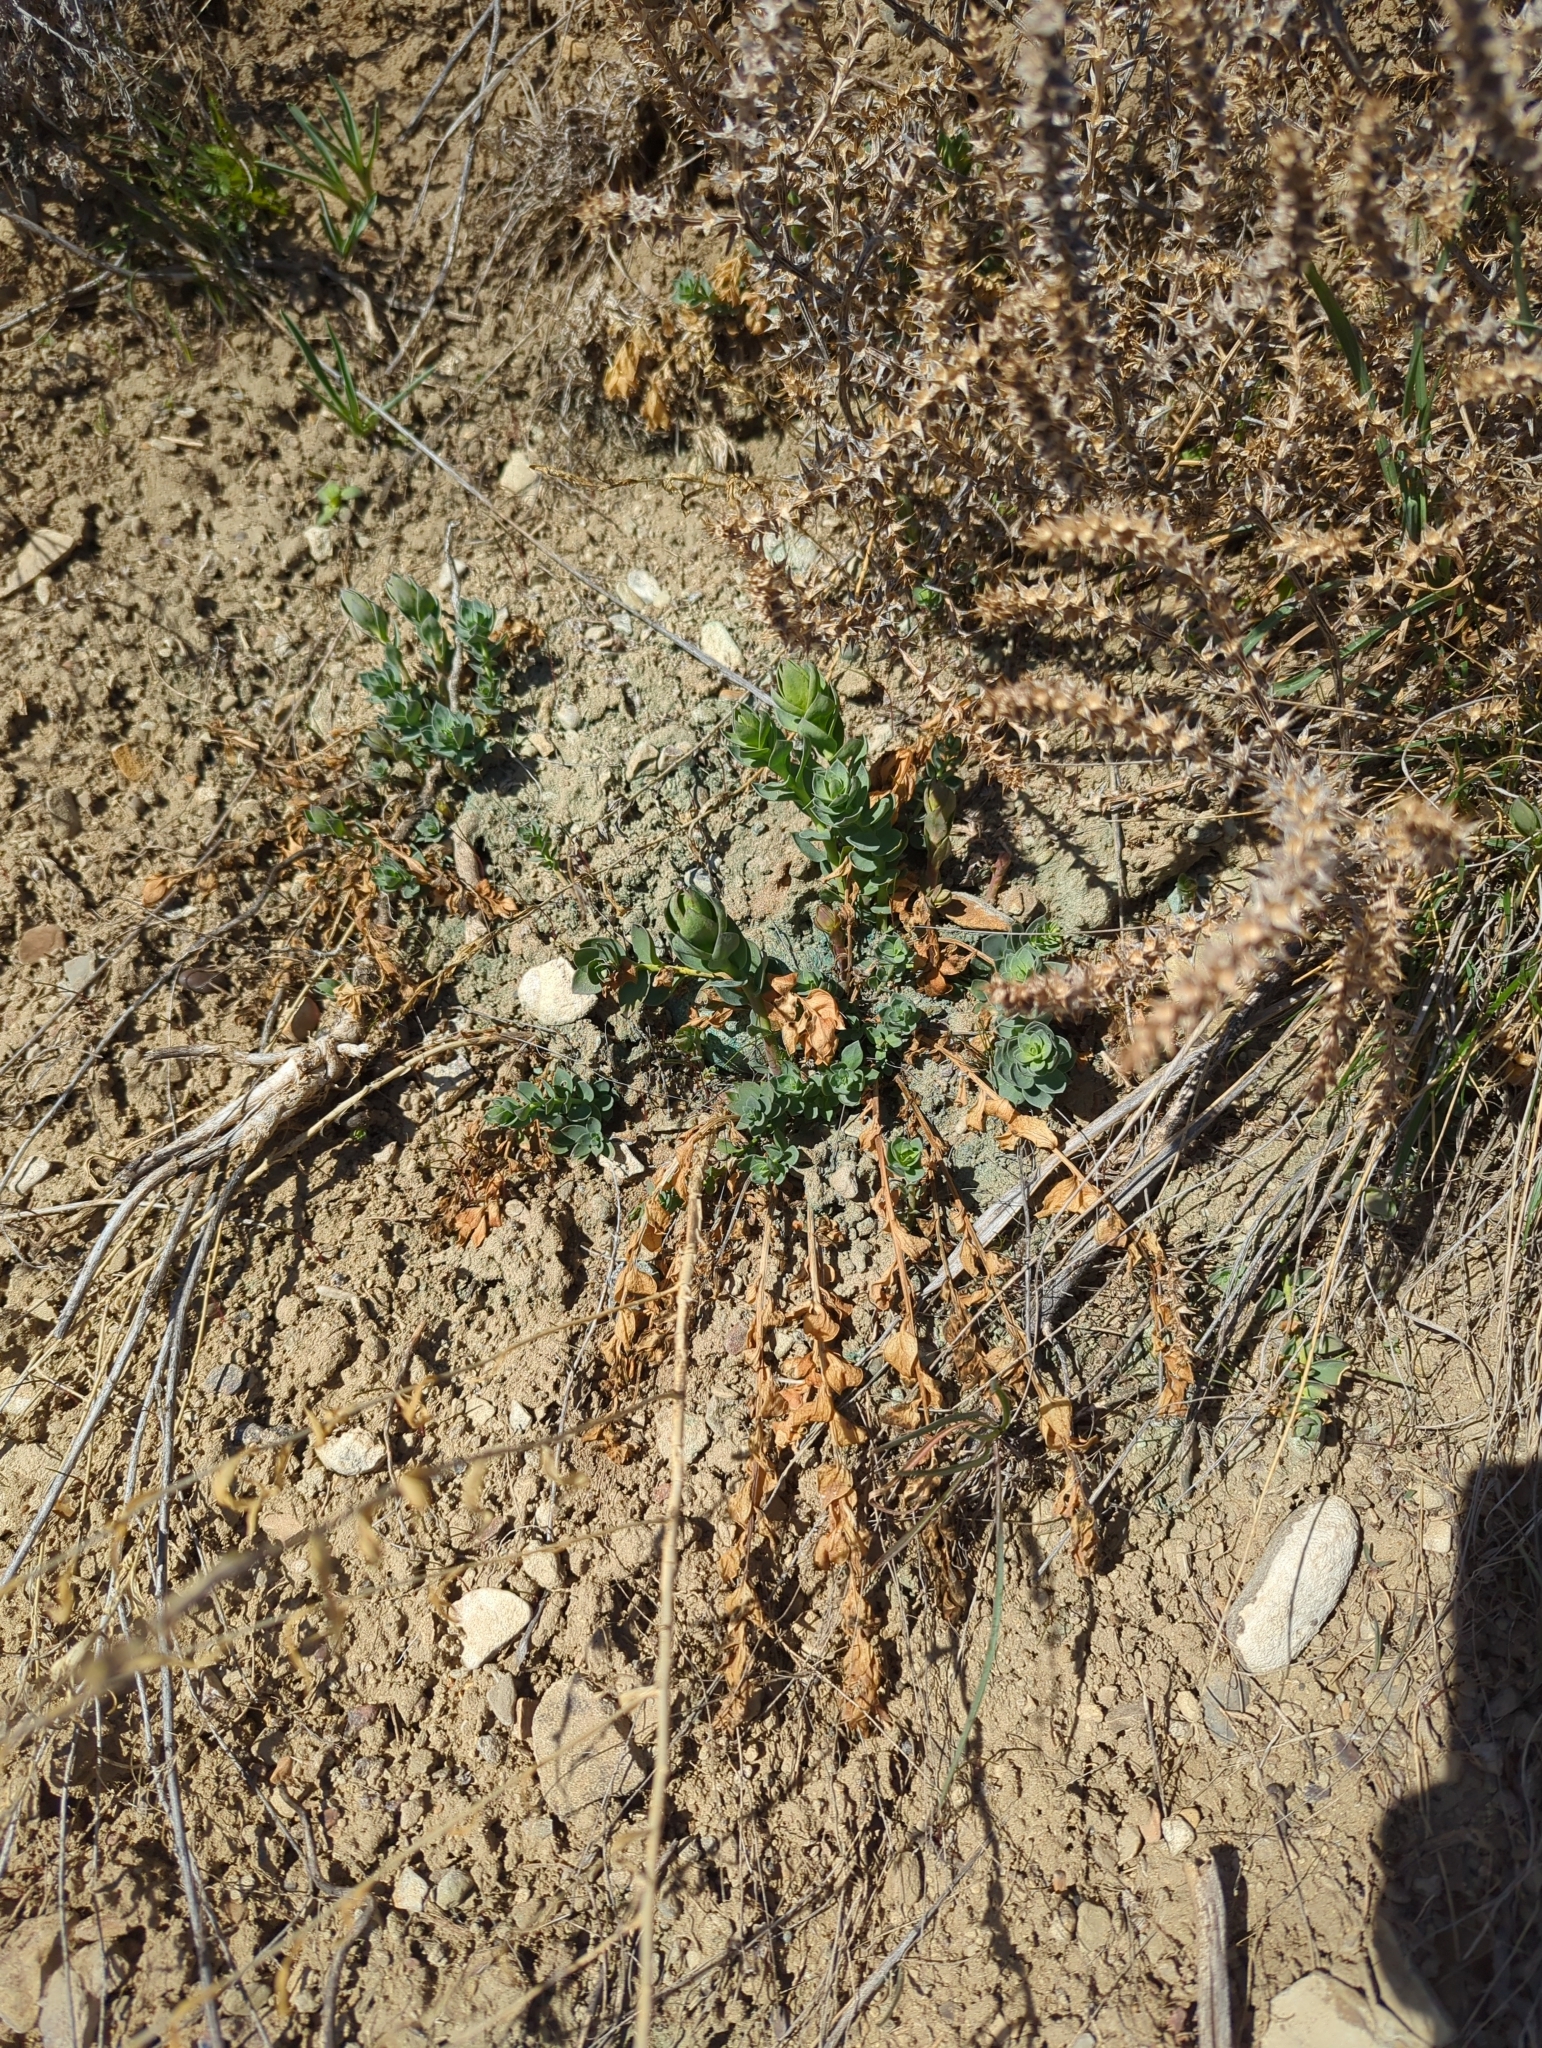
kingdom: Plantae
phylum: Tracheophyta
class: Magnoliopsida
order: Lamiales
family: Plantaginaceae
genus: Linaria
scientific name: Linaria dalmatica
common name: Dalmatian toadflax
